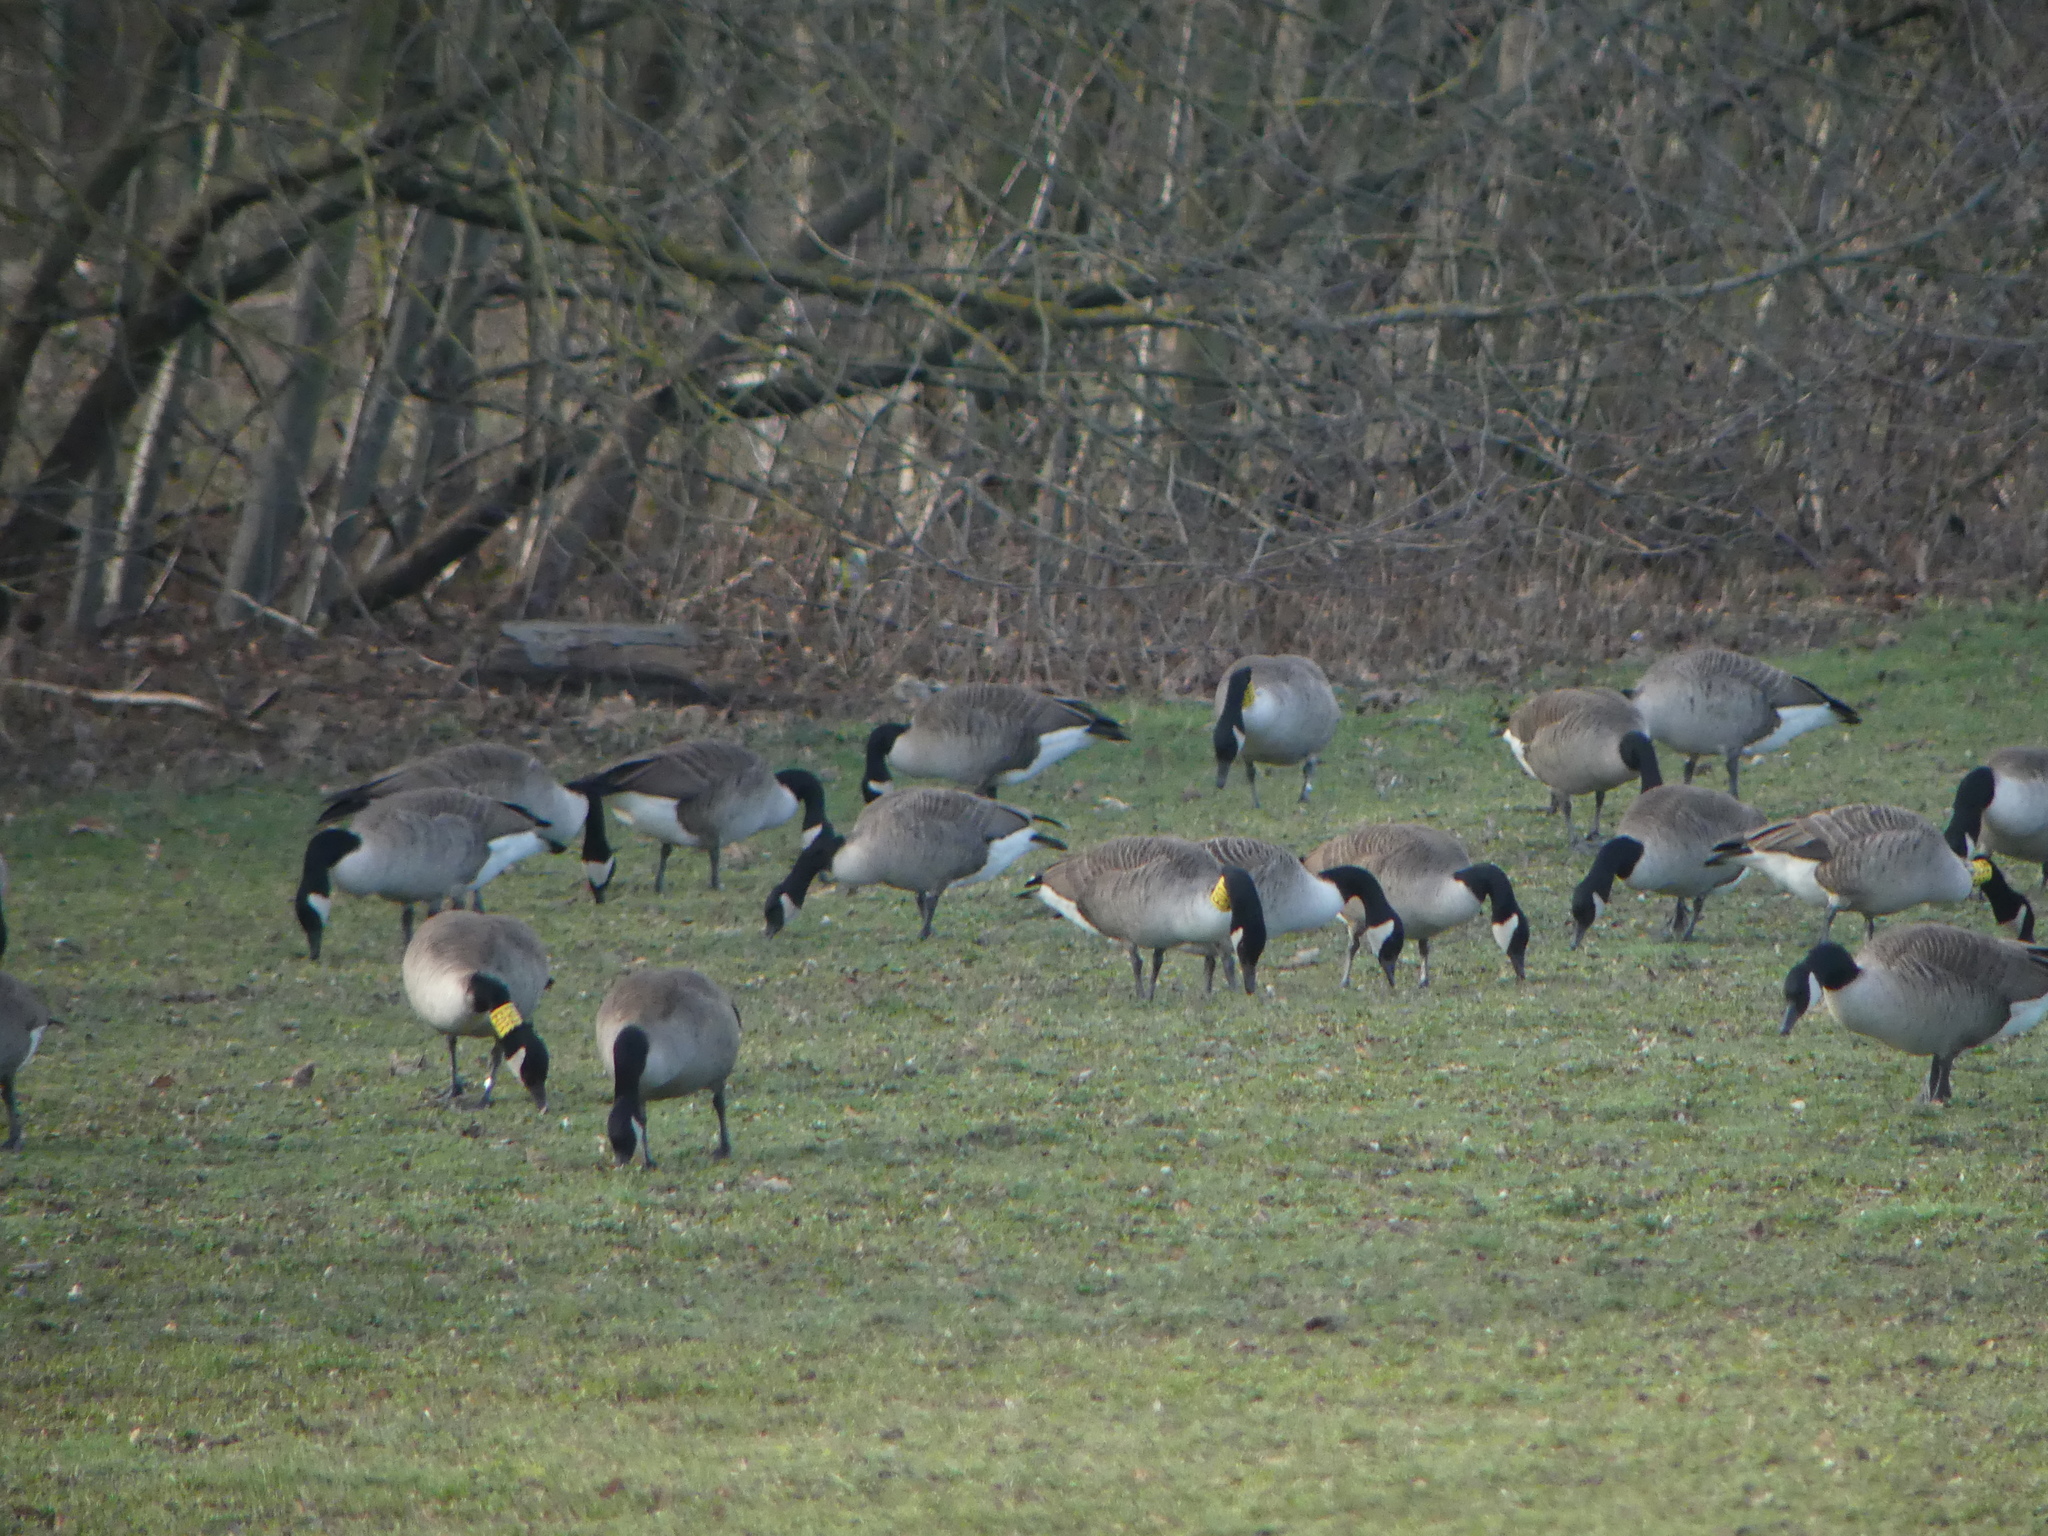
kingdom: Animalia
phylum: Chordata
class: Aves
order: Anseriformes
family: Anatidae
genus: Branta
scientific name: Branta canadensis
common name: Canada goose
